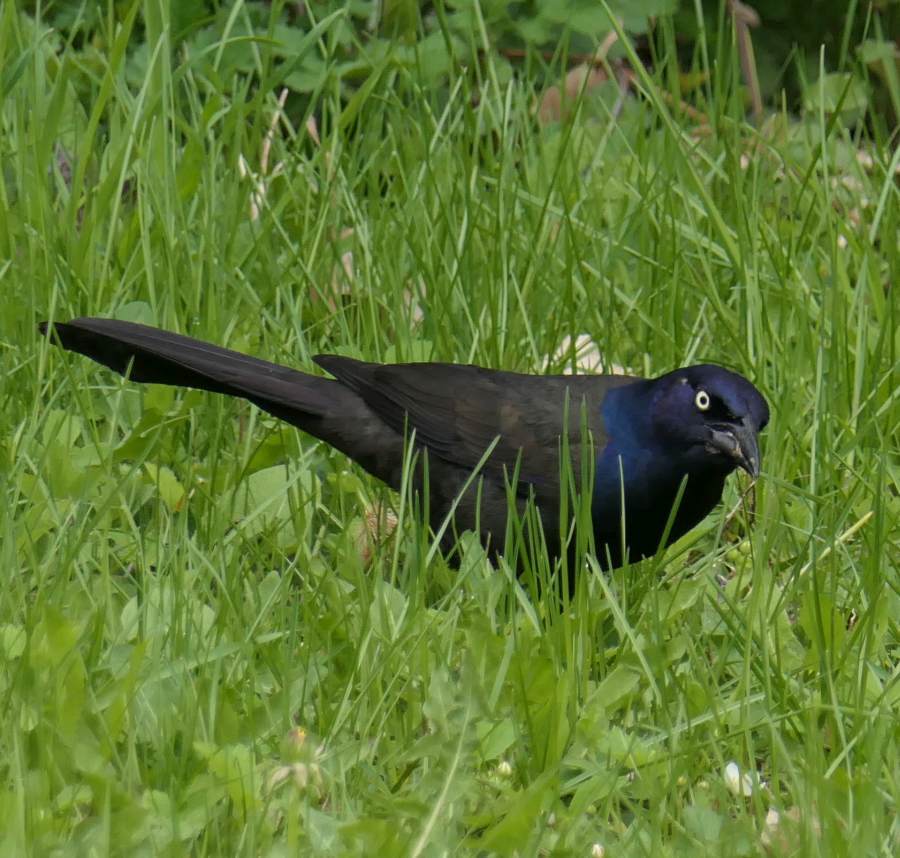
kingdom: Animalia
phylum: Chordata
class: Aves
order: Passeriformes
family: Icteridae
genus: Quiscalus
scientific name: Quiscalus quiscula
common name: Common grackle
